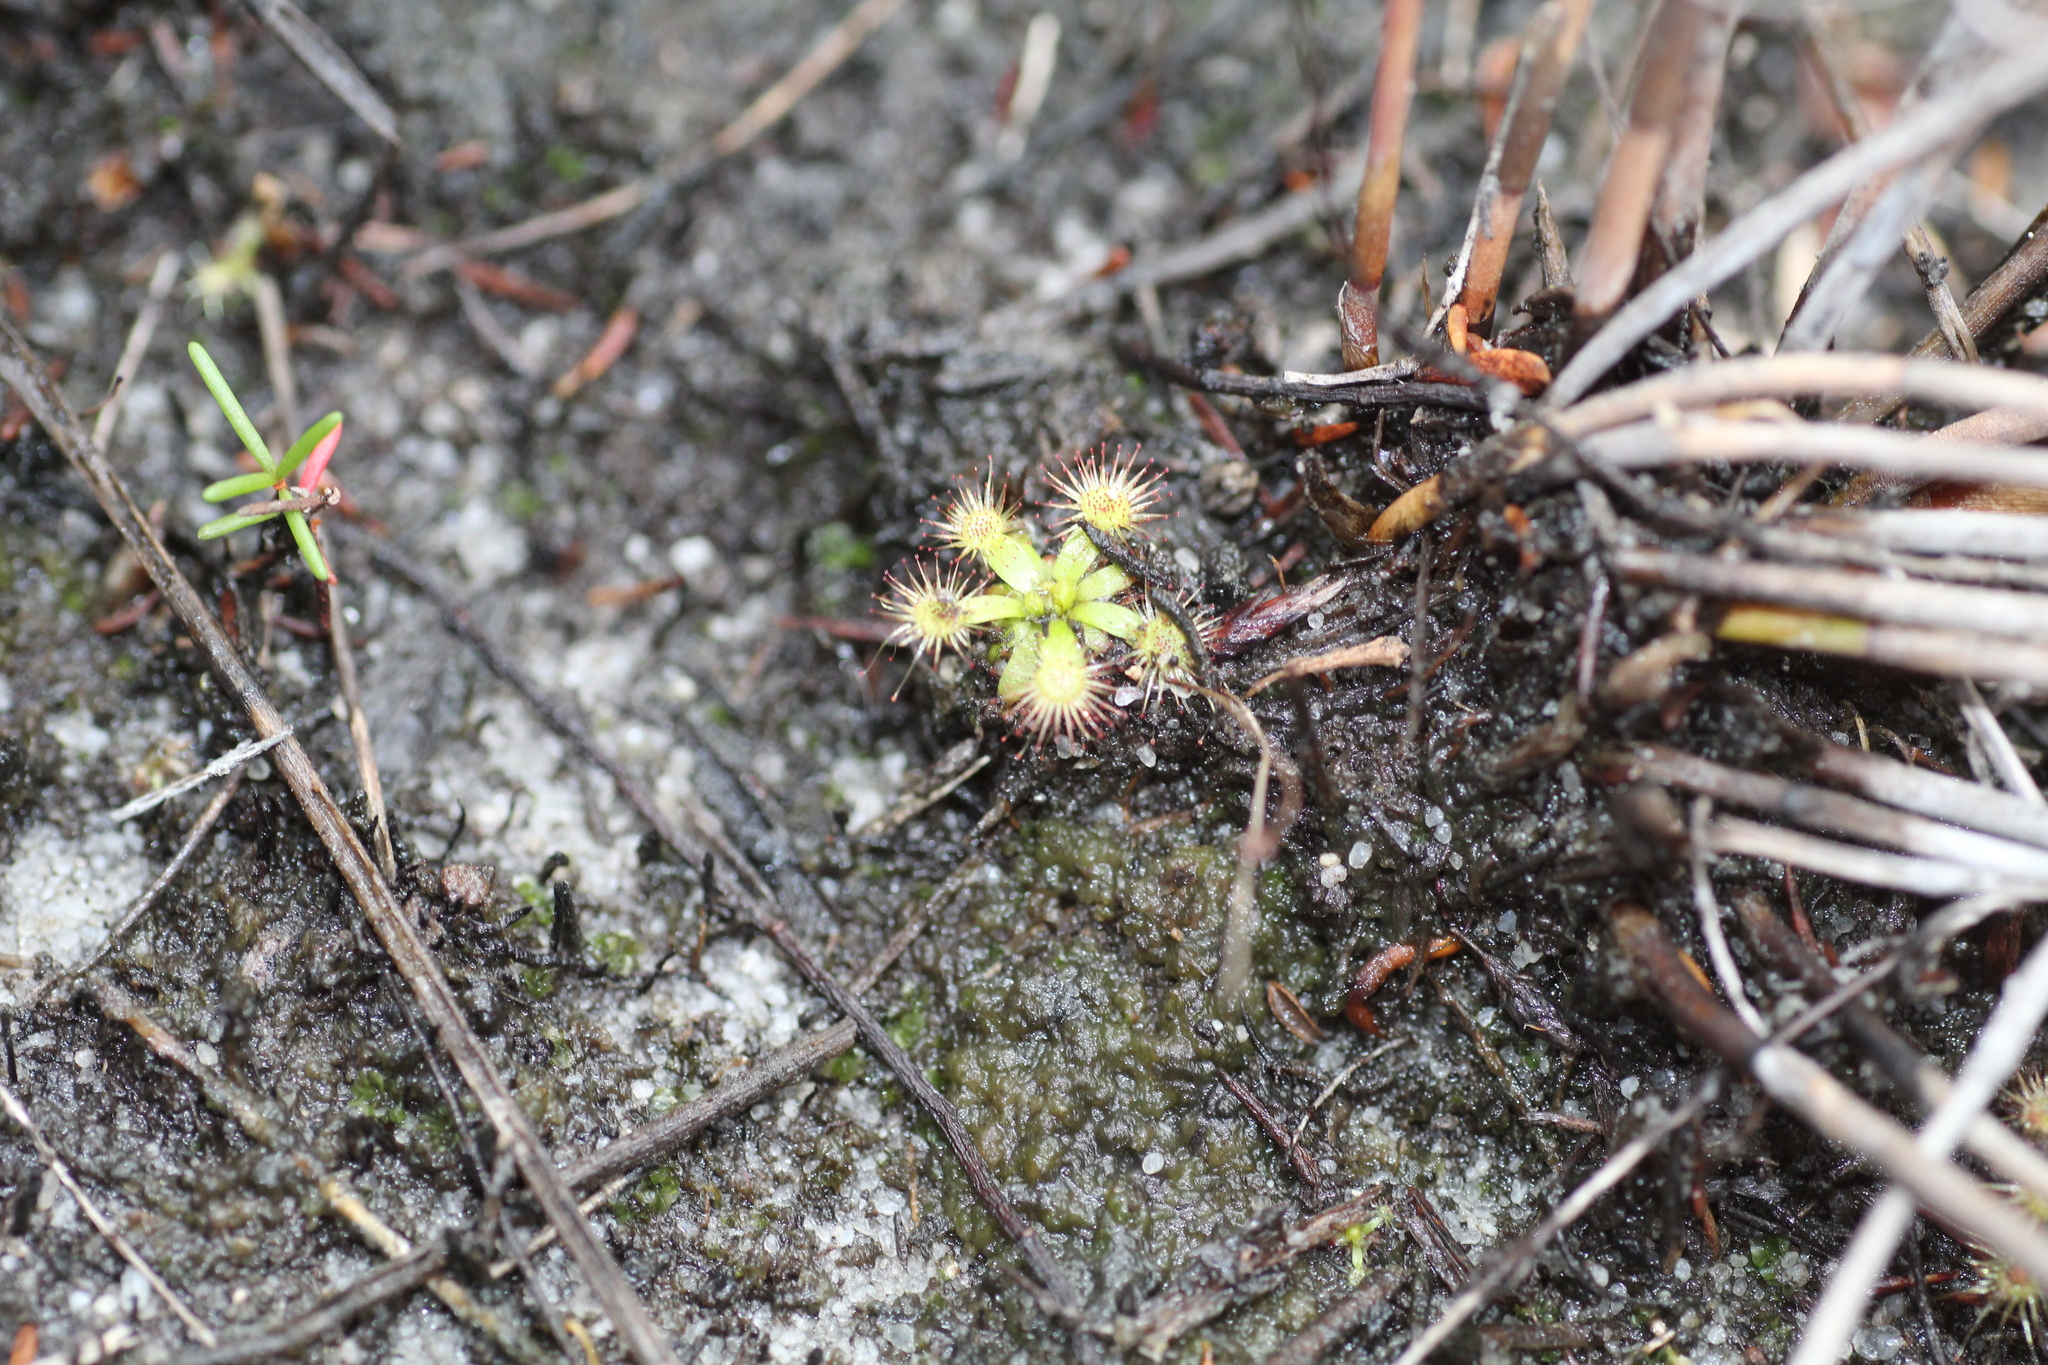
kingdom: Plantae
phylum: Tracheophyta
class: Magnoliopsida
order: Caryophyllales
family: Droseraceae
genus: Drosera
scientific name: Drosera pulchella
